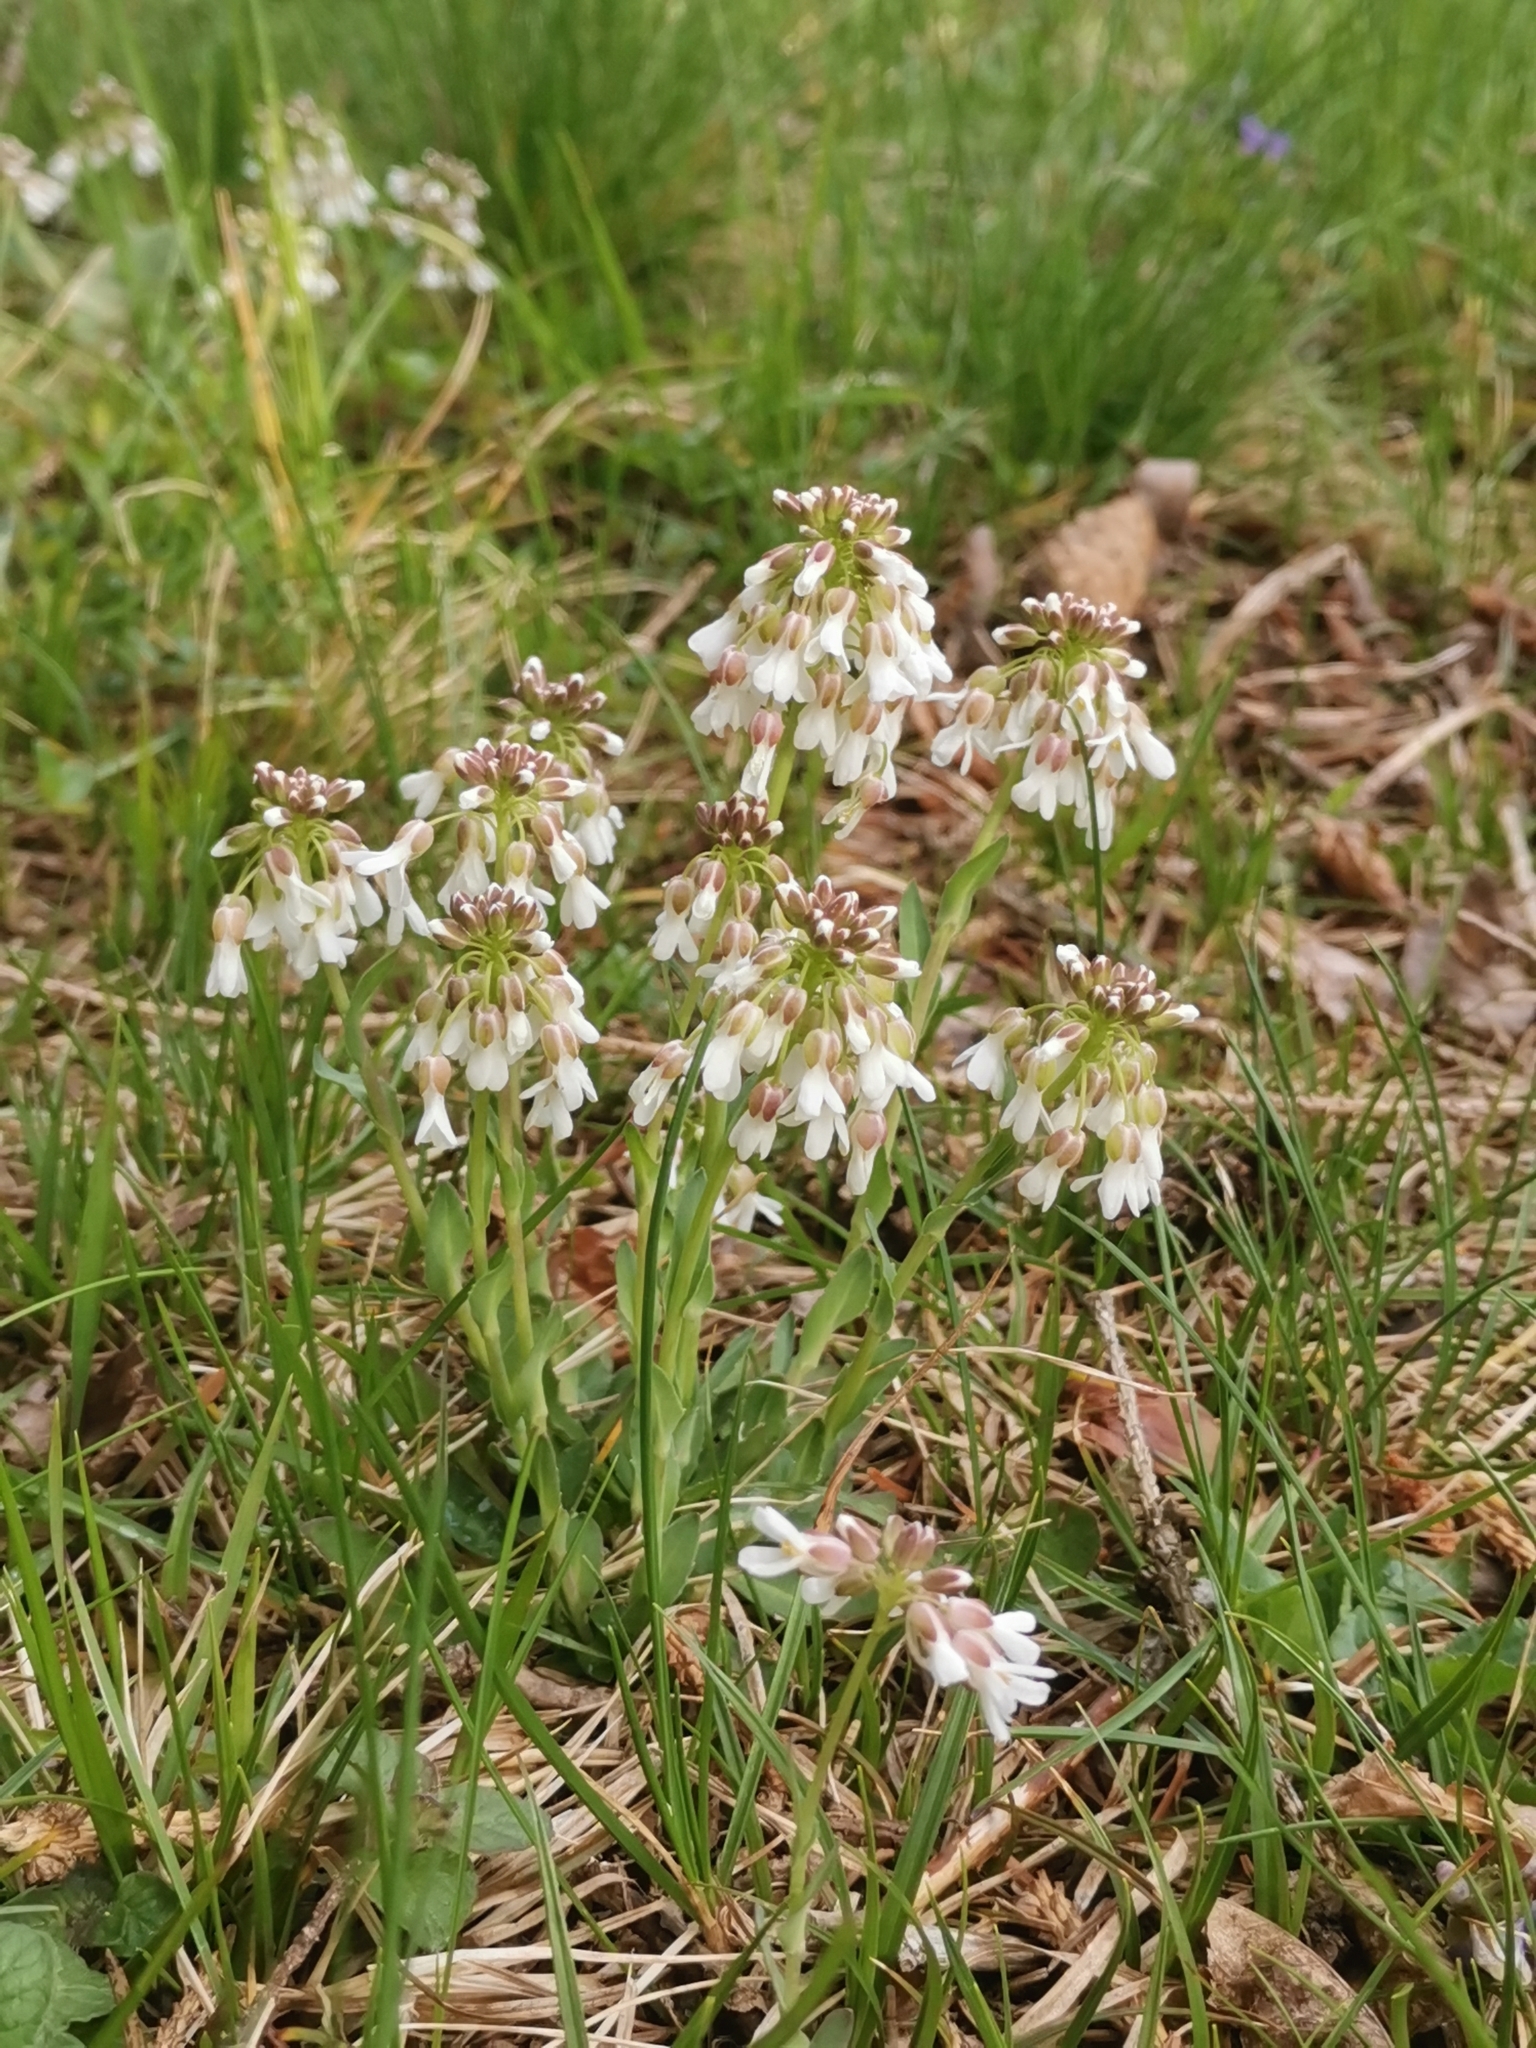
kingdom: Plantae
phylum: Tracheophyta
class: Magnoliopsida
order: Brassicales
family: Brassicaceae
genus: Noccaea
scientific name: Noccaea praecox
